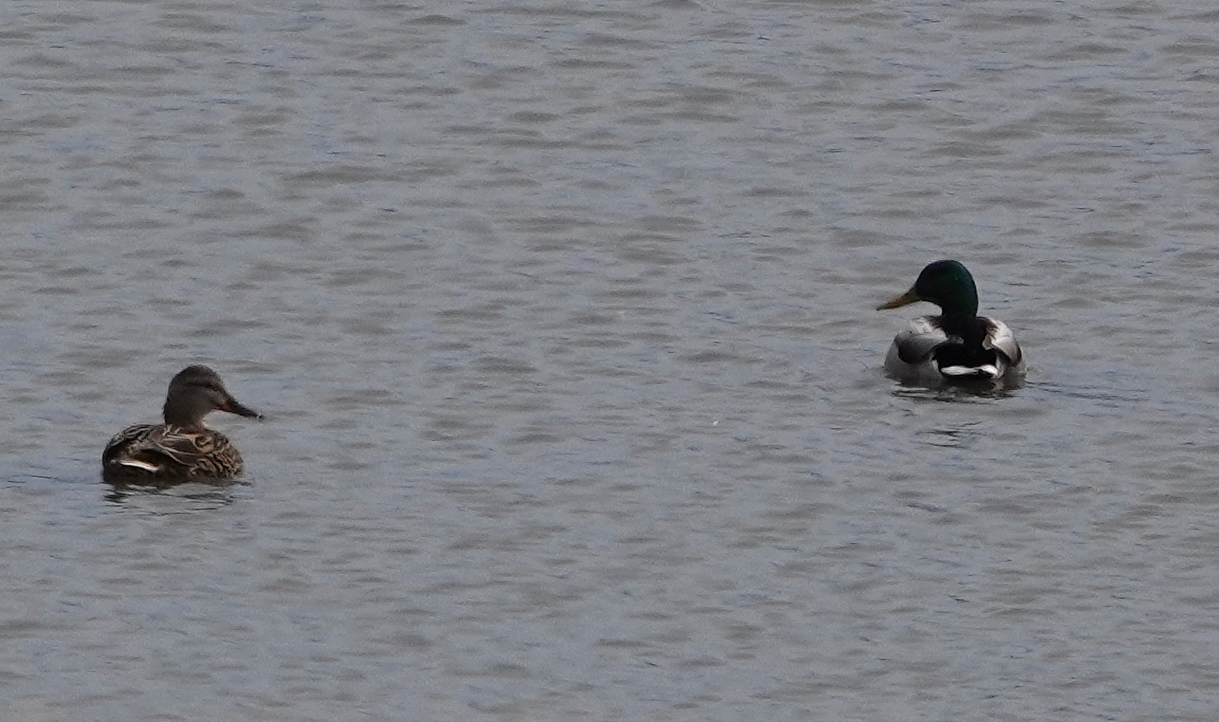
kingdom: Animalia
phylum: Chordata
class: Aves
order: Anseriformes
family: Anatidae
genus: Anas
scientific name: Anas platyrhynchos
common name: Mallard
